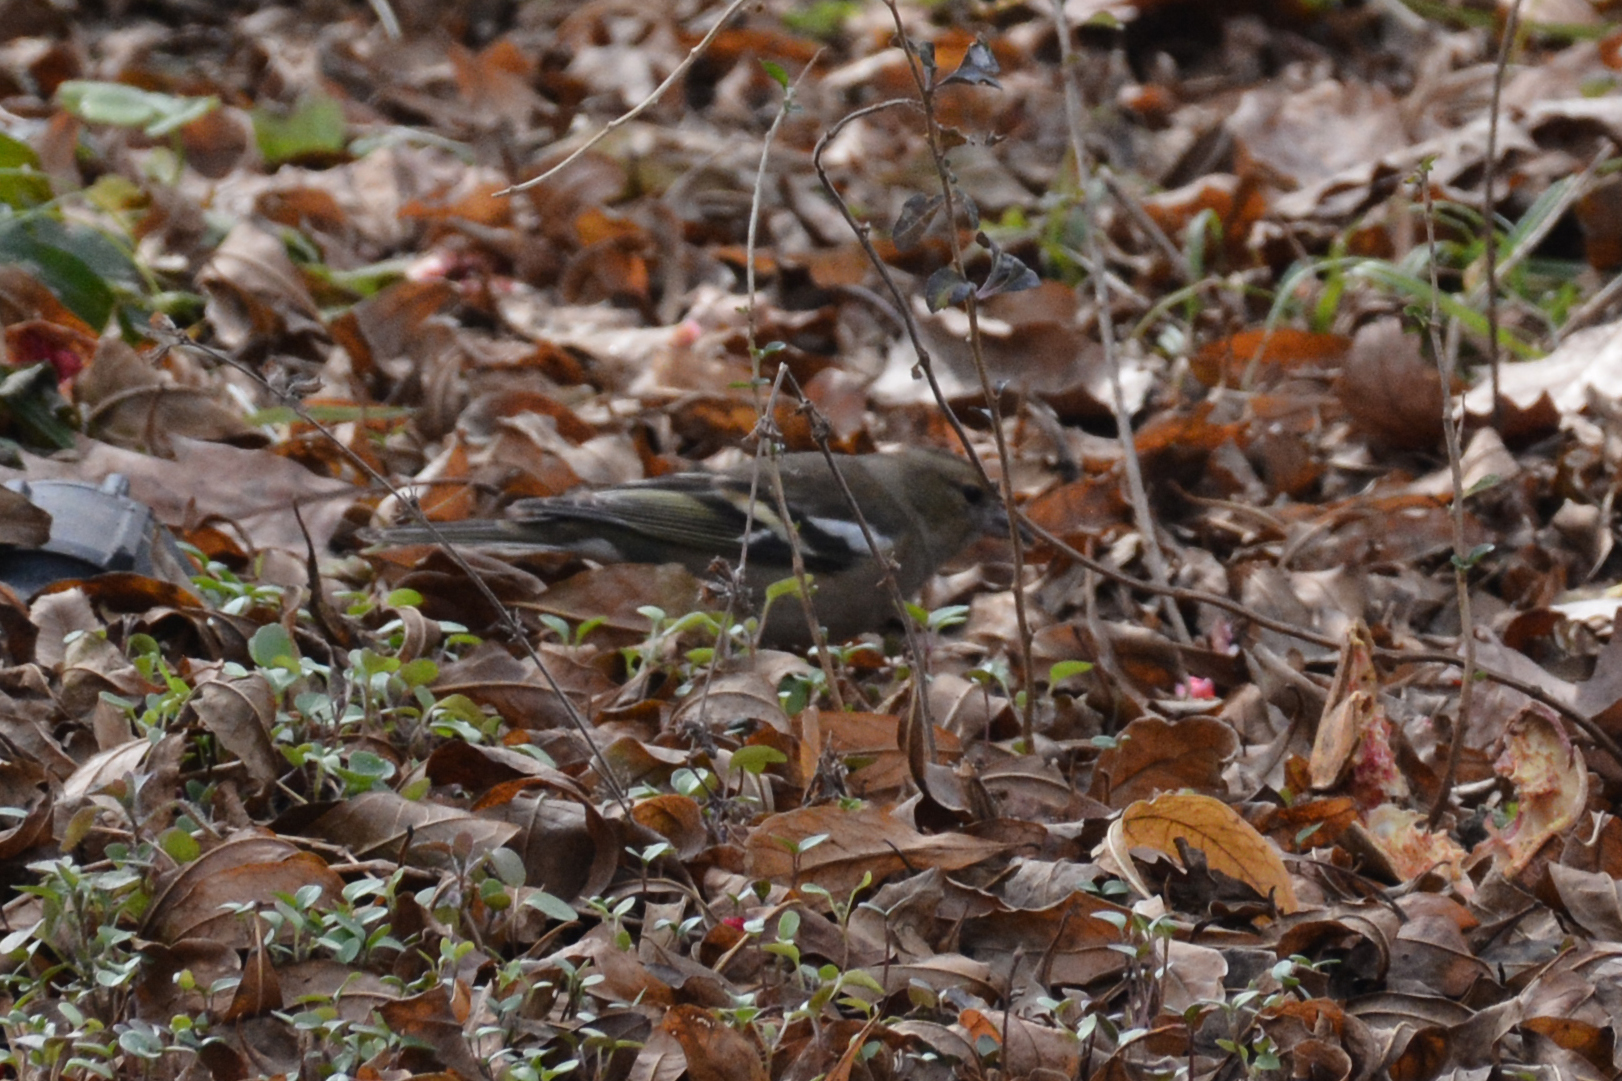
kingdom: Animalia
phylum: Chordata
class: Aves
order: Passeriformes
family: Fringillidae
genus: Fringilla
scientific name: Fringilla coelebs
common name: Common chaffinch
